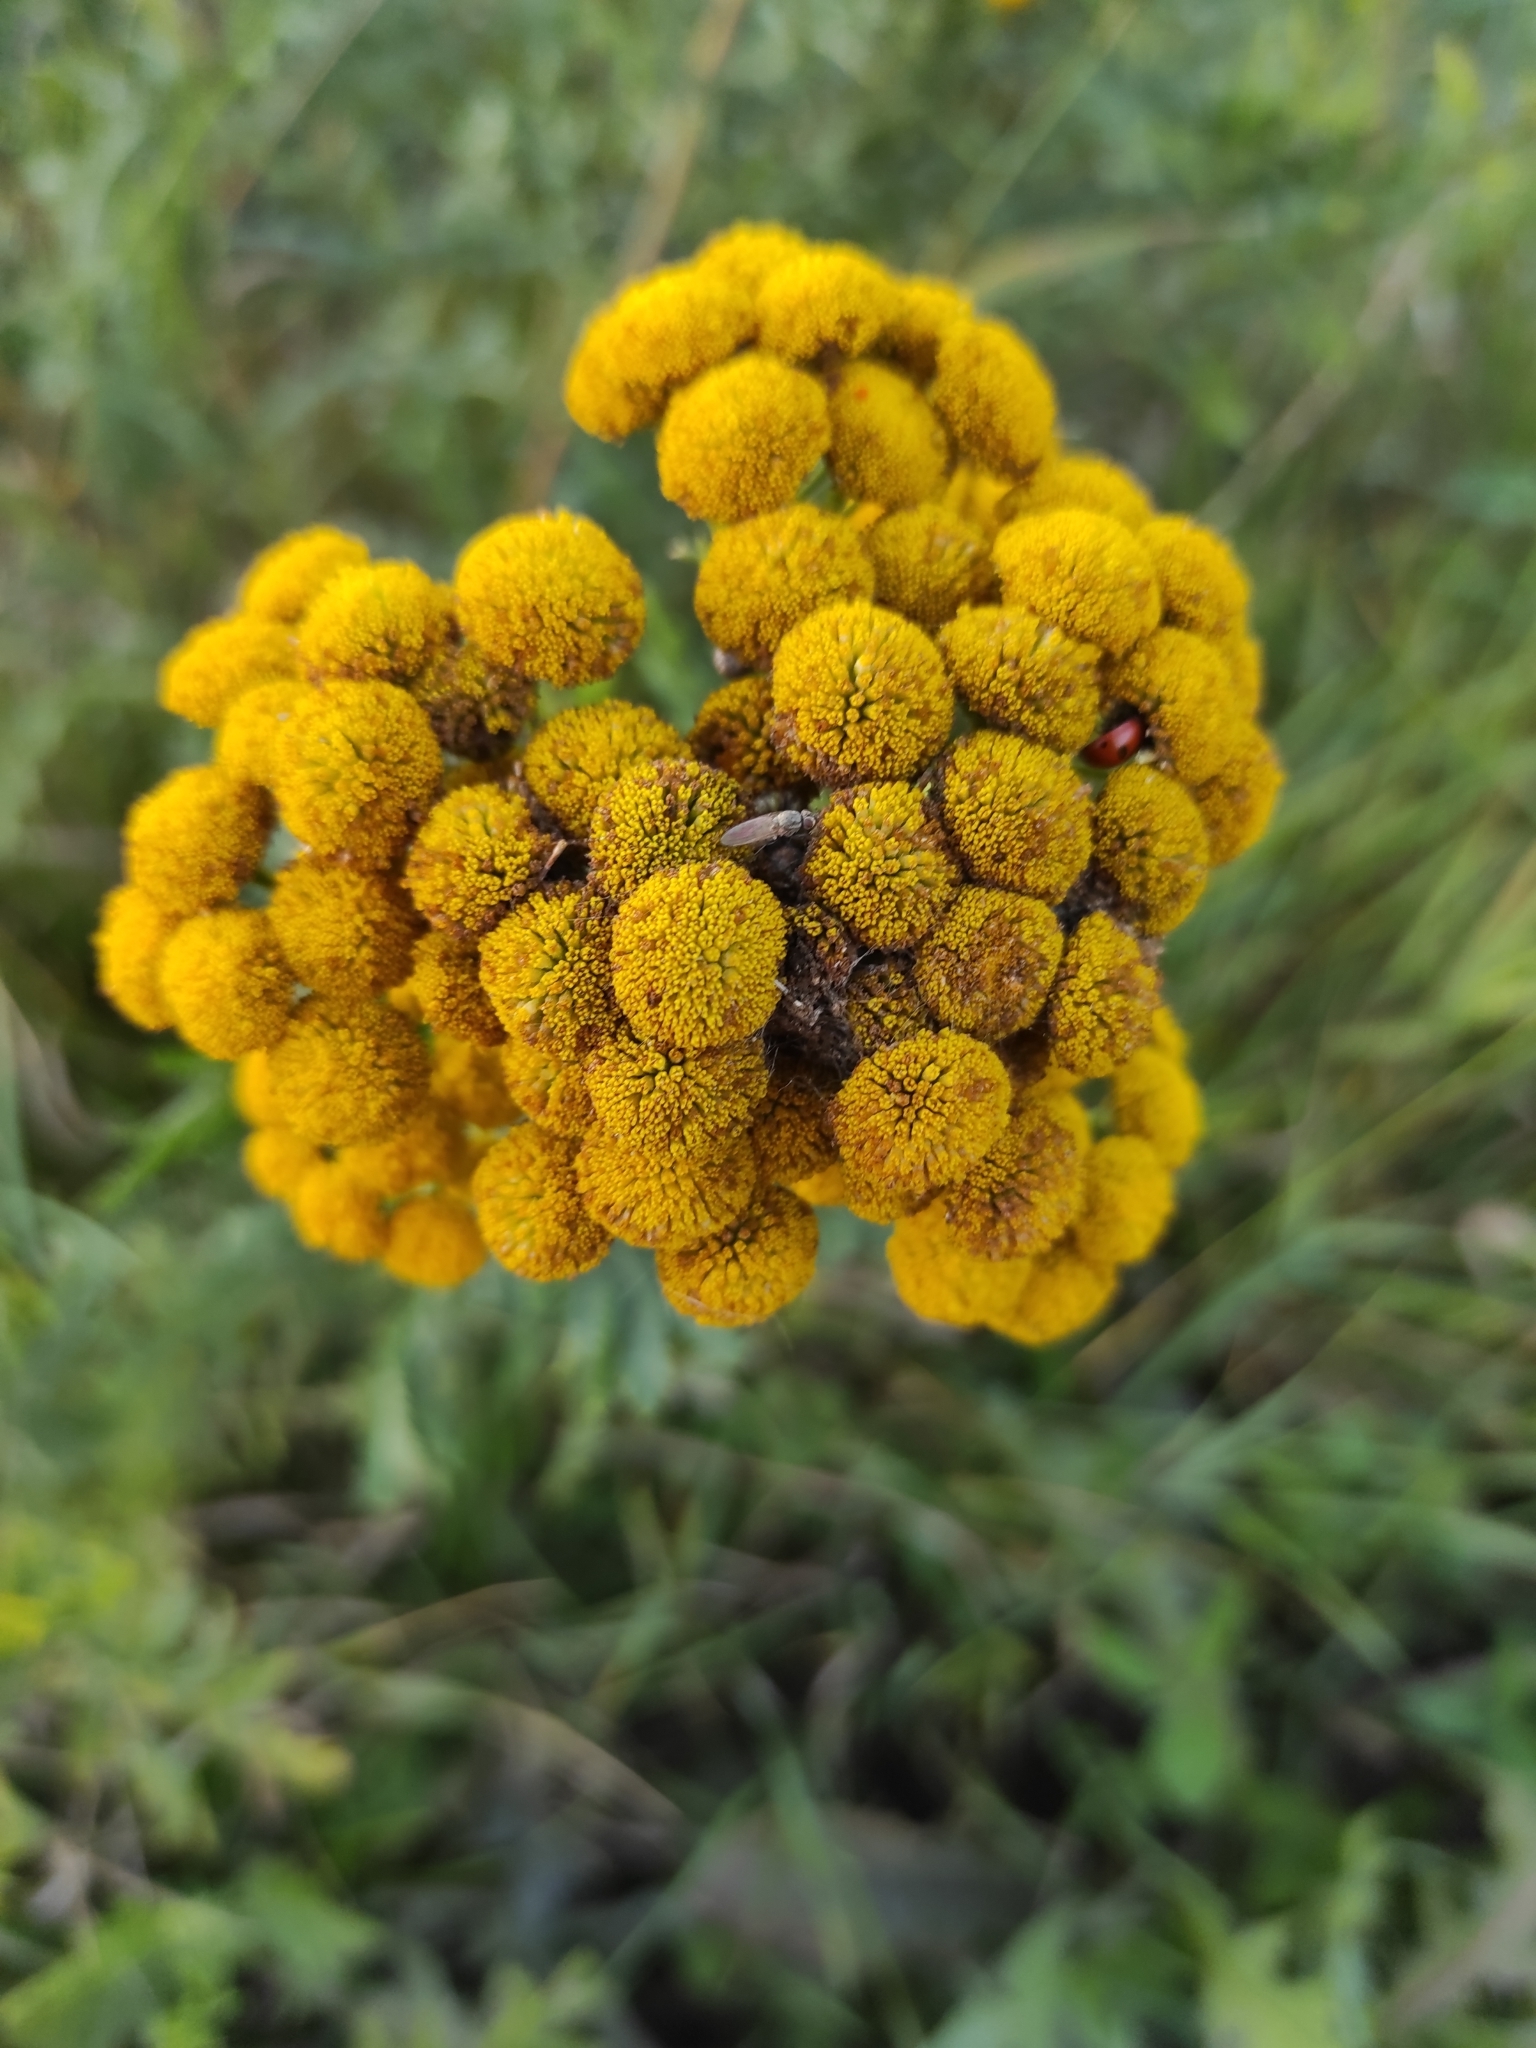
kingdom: Plantae
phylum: Tracheophyta
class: Magnoliopsida
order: Asterales
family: Asteraceae
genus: Tanacetum
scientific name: Tanacetum vulgare
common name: Common tansy
